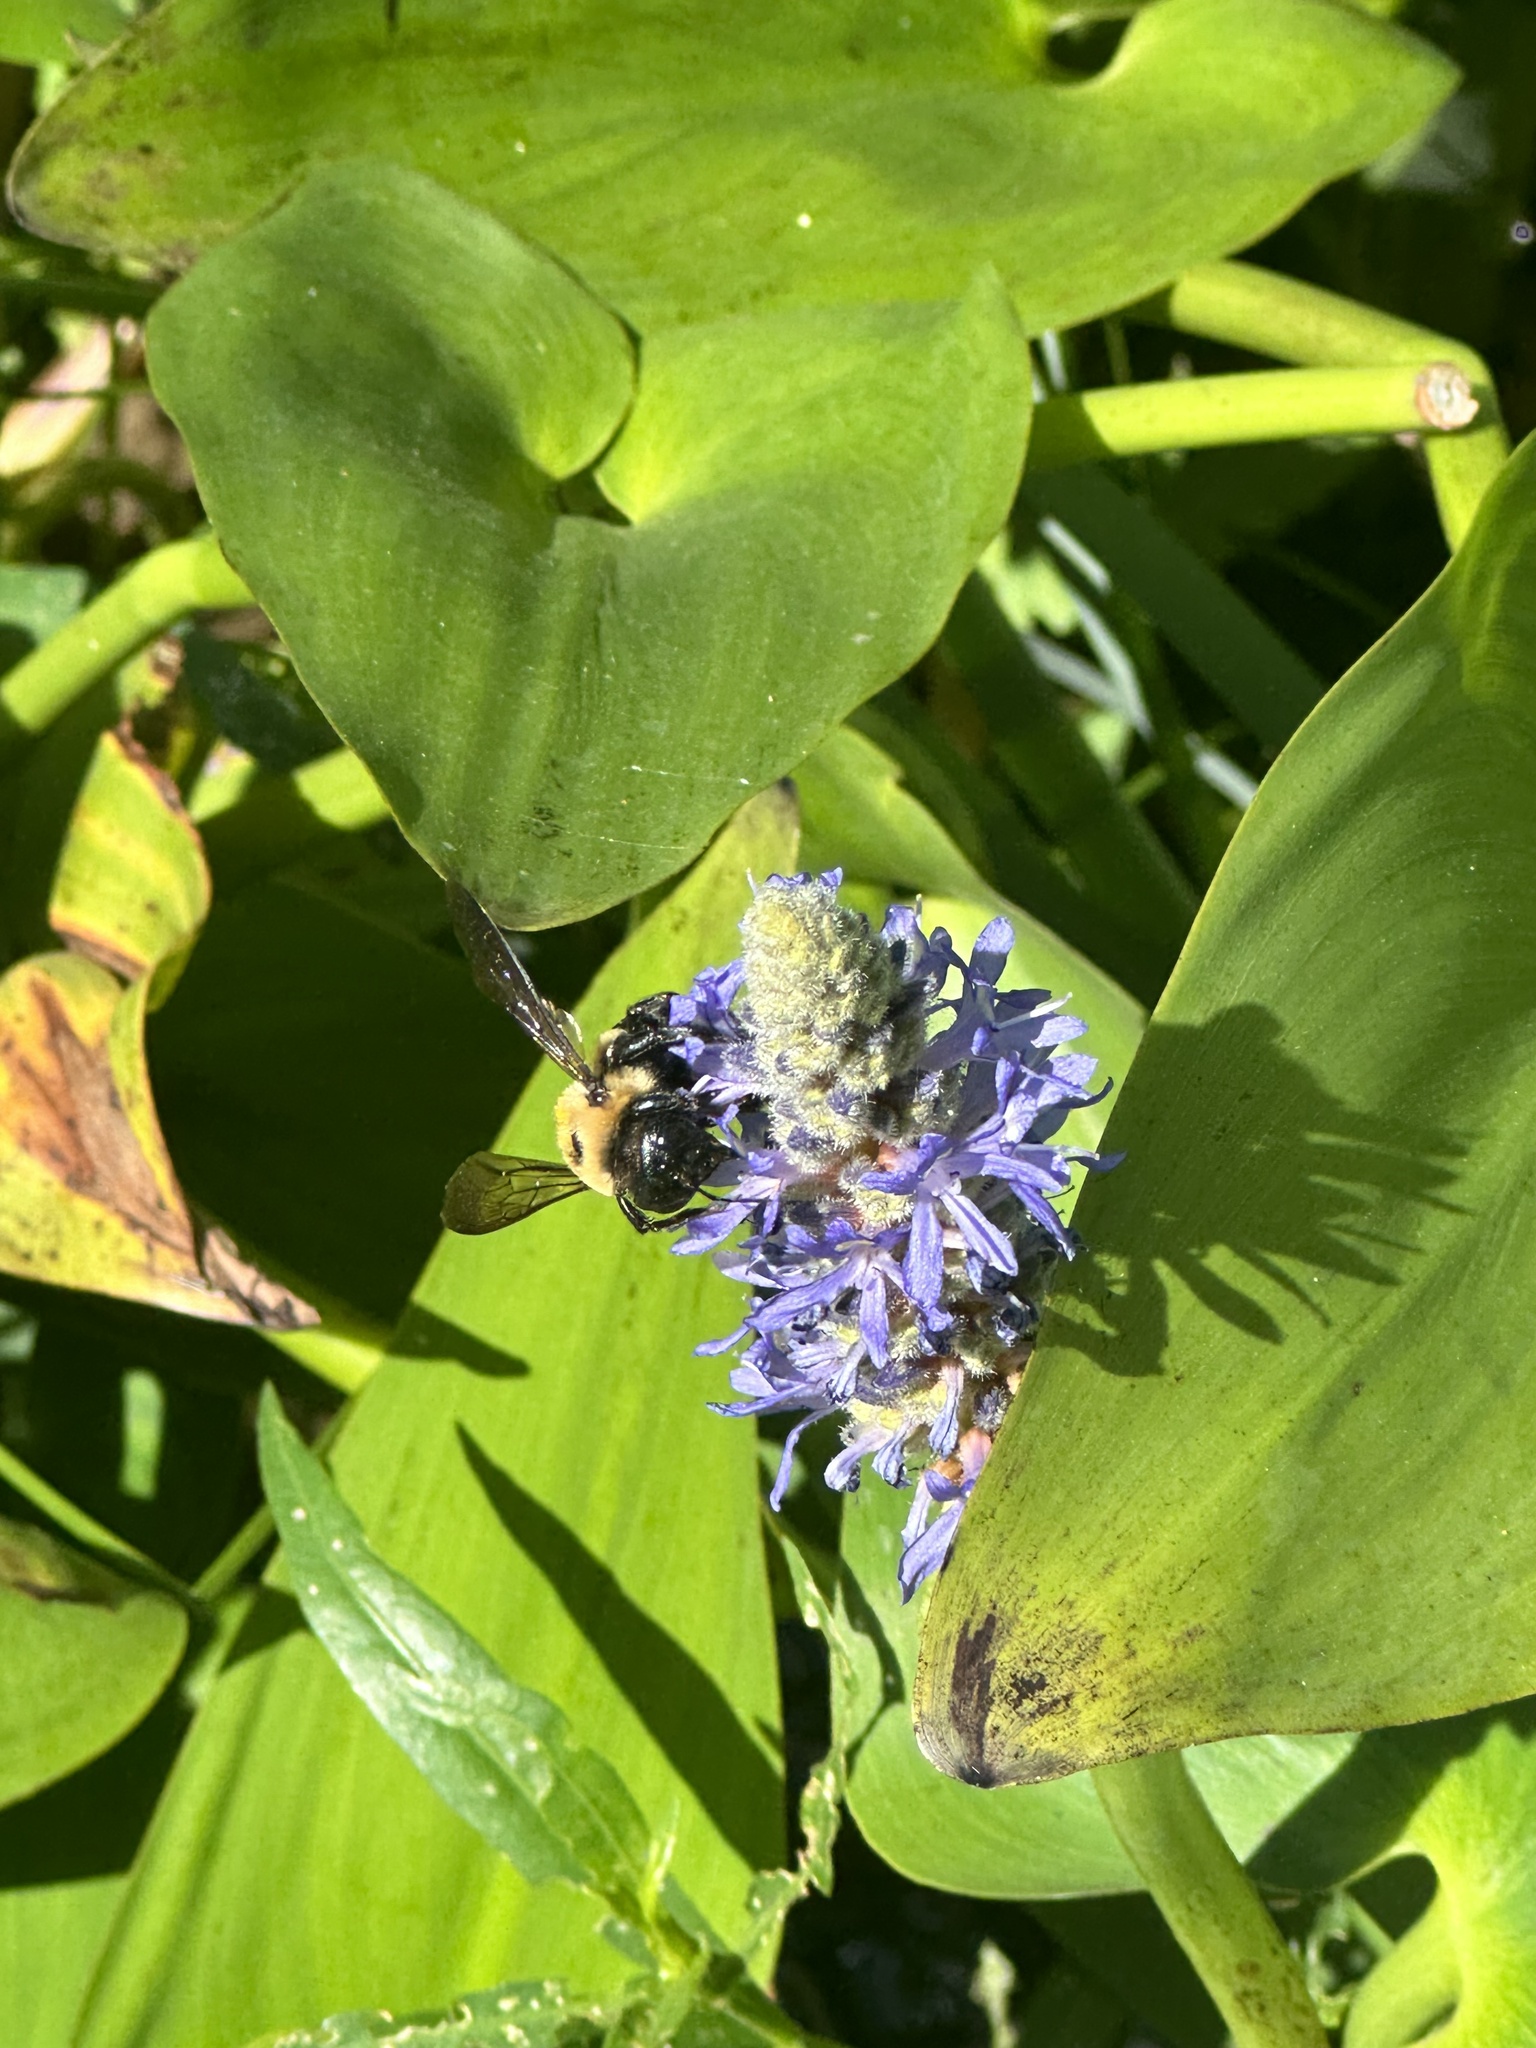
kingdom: Animalia
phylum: Arthropoda
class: Insecta
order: Hymenoptera
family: Apidae
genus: Xylocopa
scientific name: Xylocopa virginica
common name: Carpenter bee
